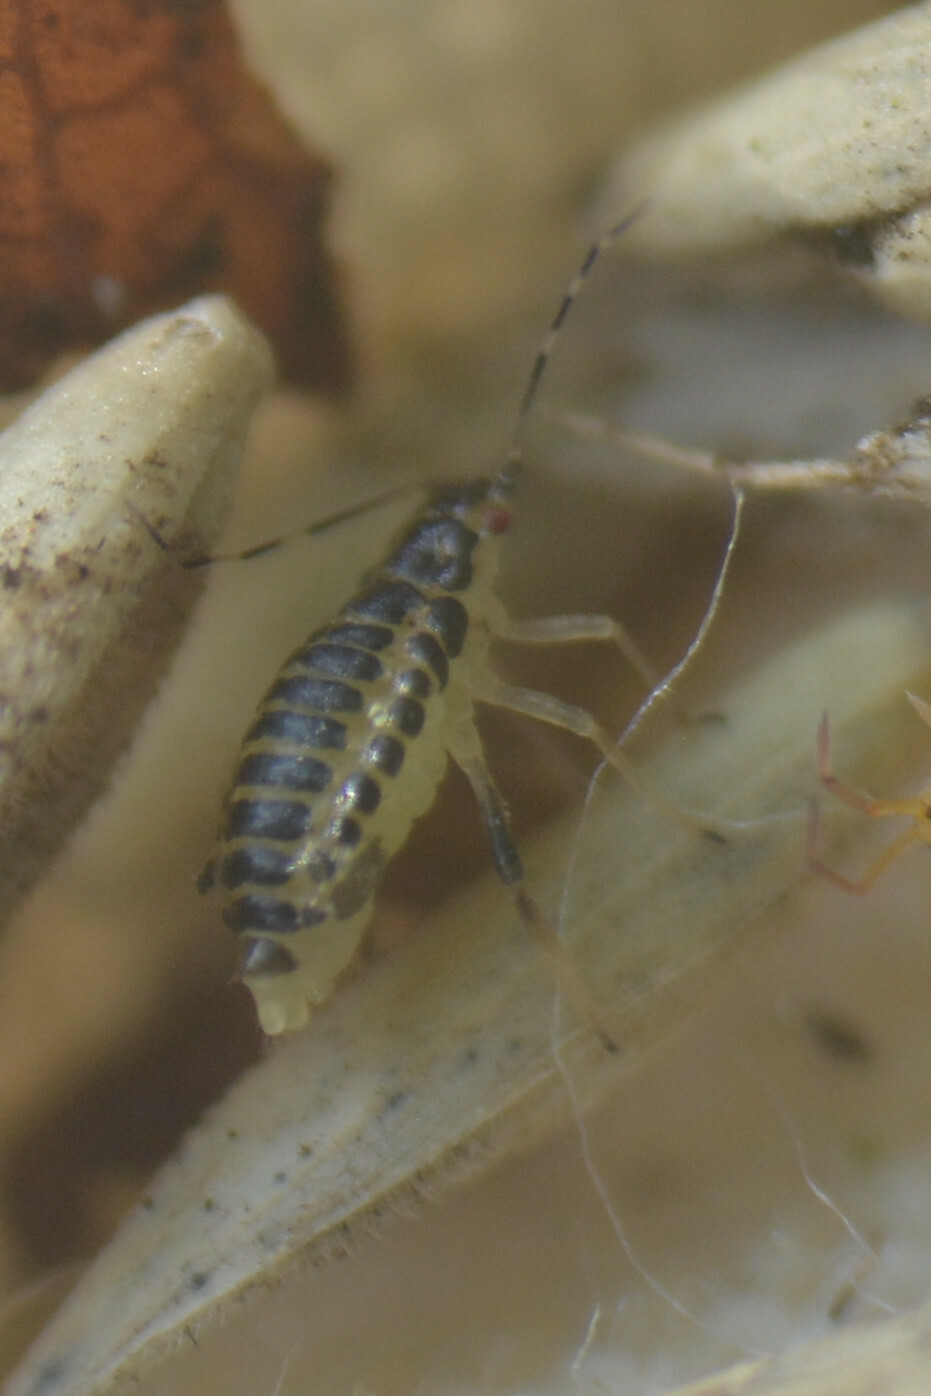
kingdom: Animalia
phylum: Arthropoda
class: Insecta
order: Hemiptera
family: Aphididae
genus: Eucallipterus
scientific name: Eucallipterus tiliae
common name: Aphid
